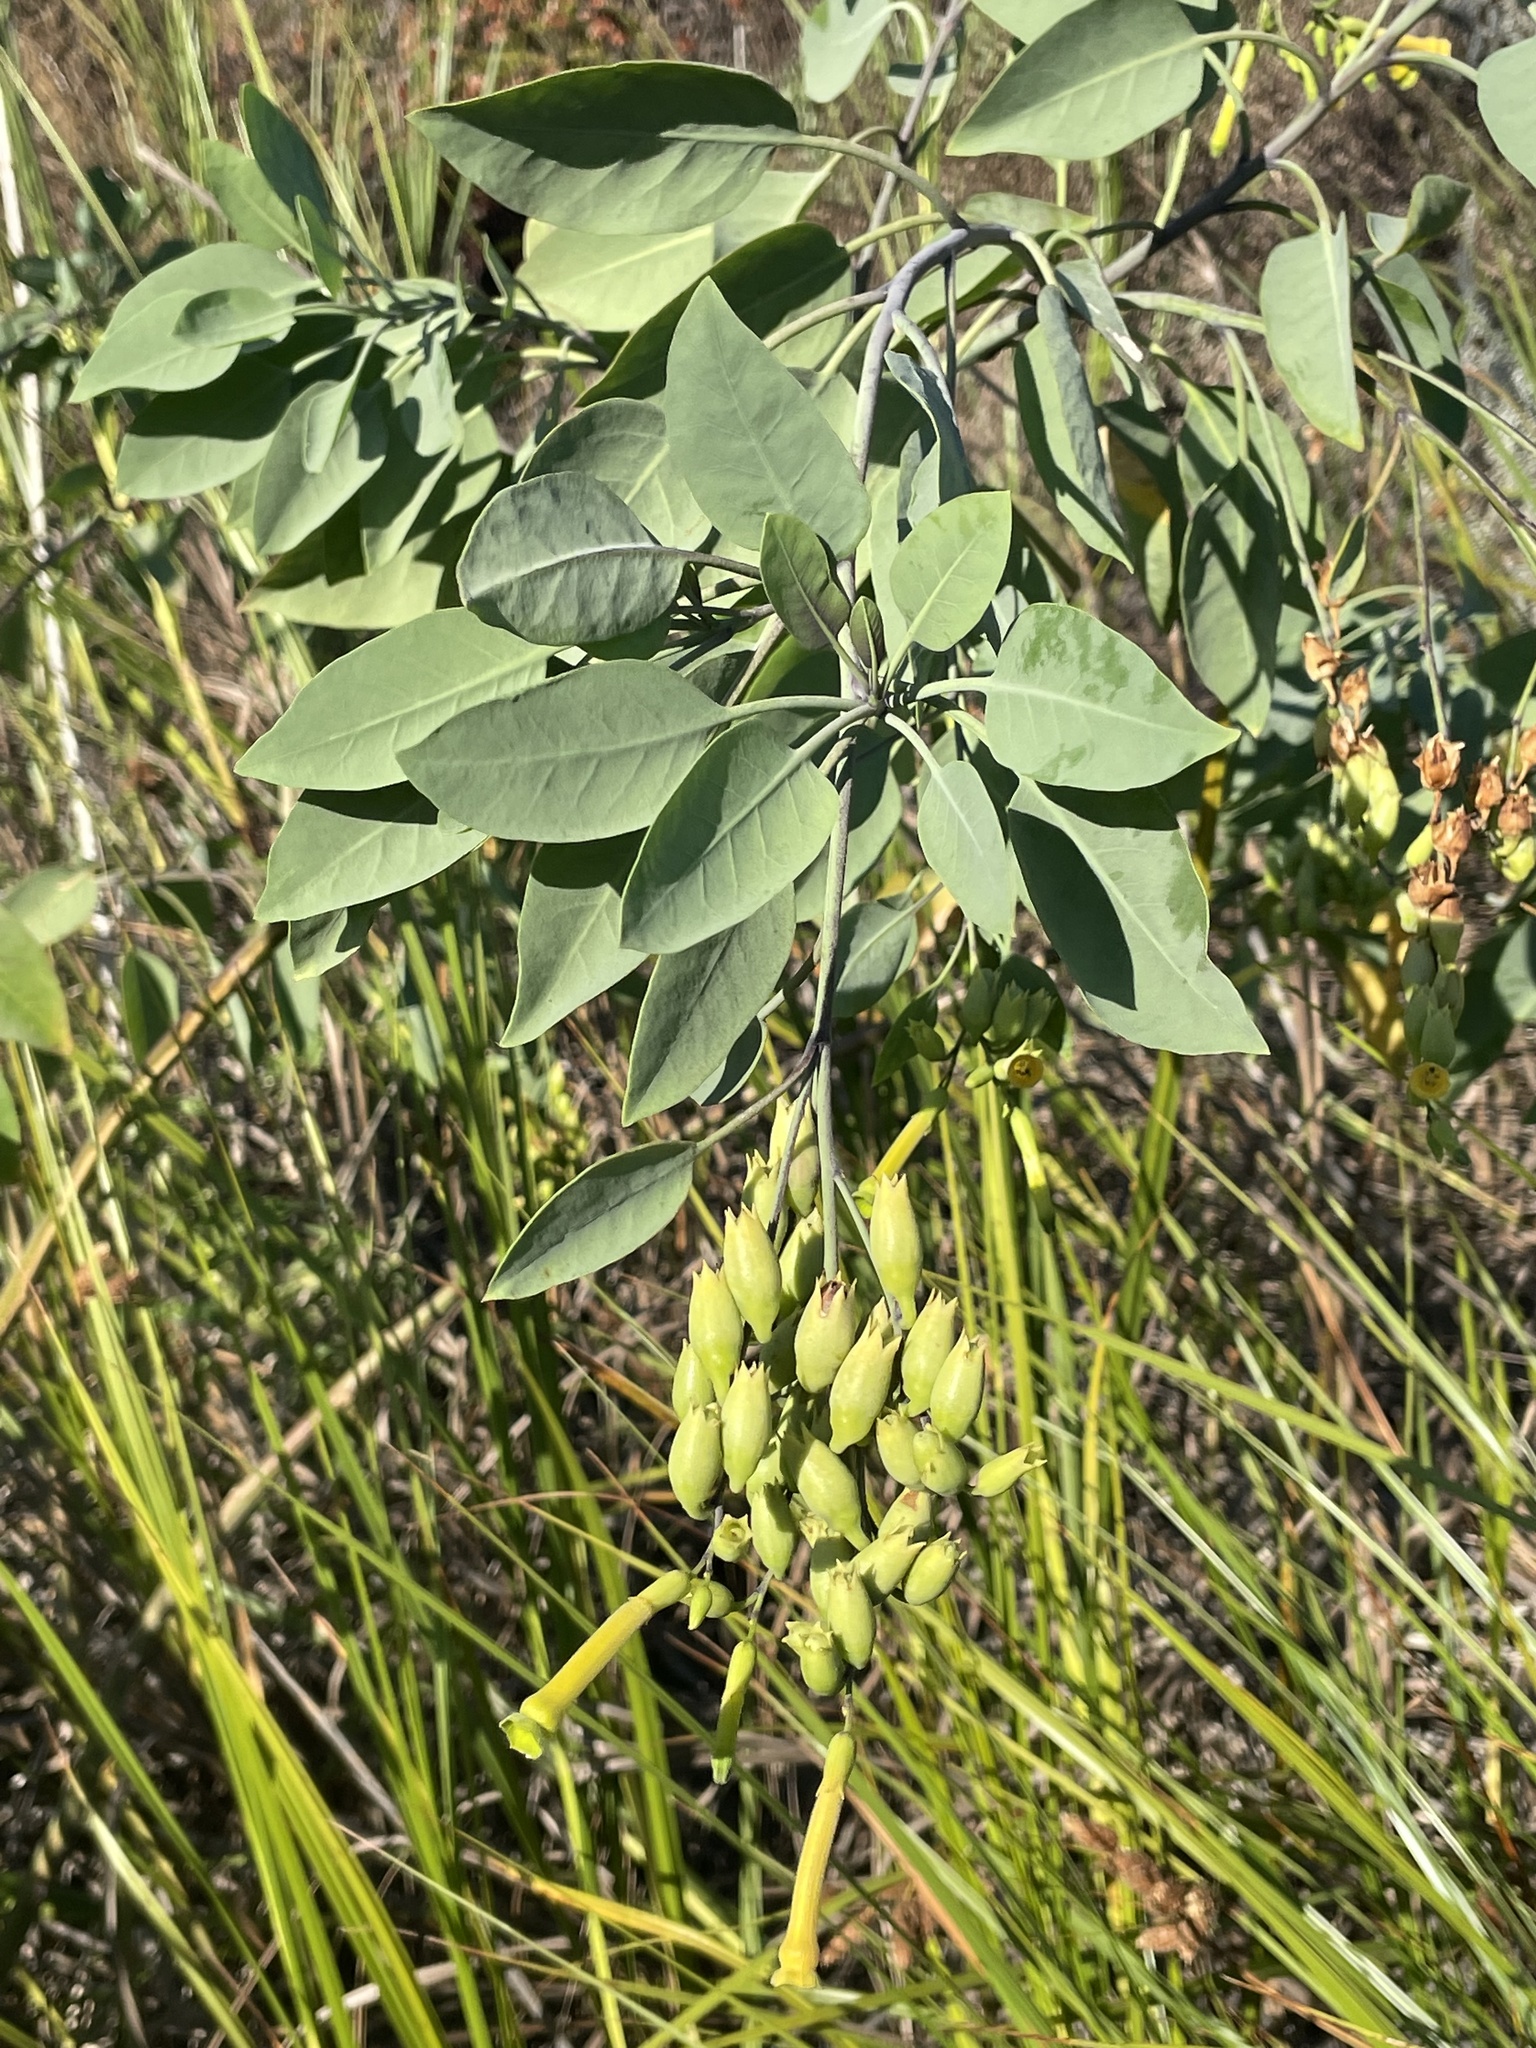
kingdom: Plantae
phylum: Tracheophyta
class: Magnoliopsida
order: Solanales
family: Solanaceae
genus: Nicotiana
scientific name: Nicotiana glauca
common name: Tree tobacco
